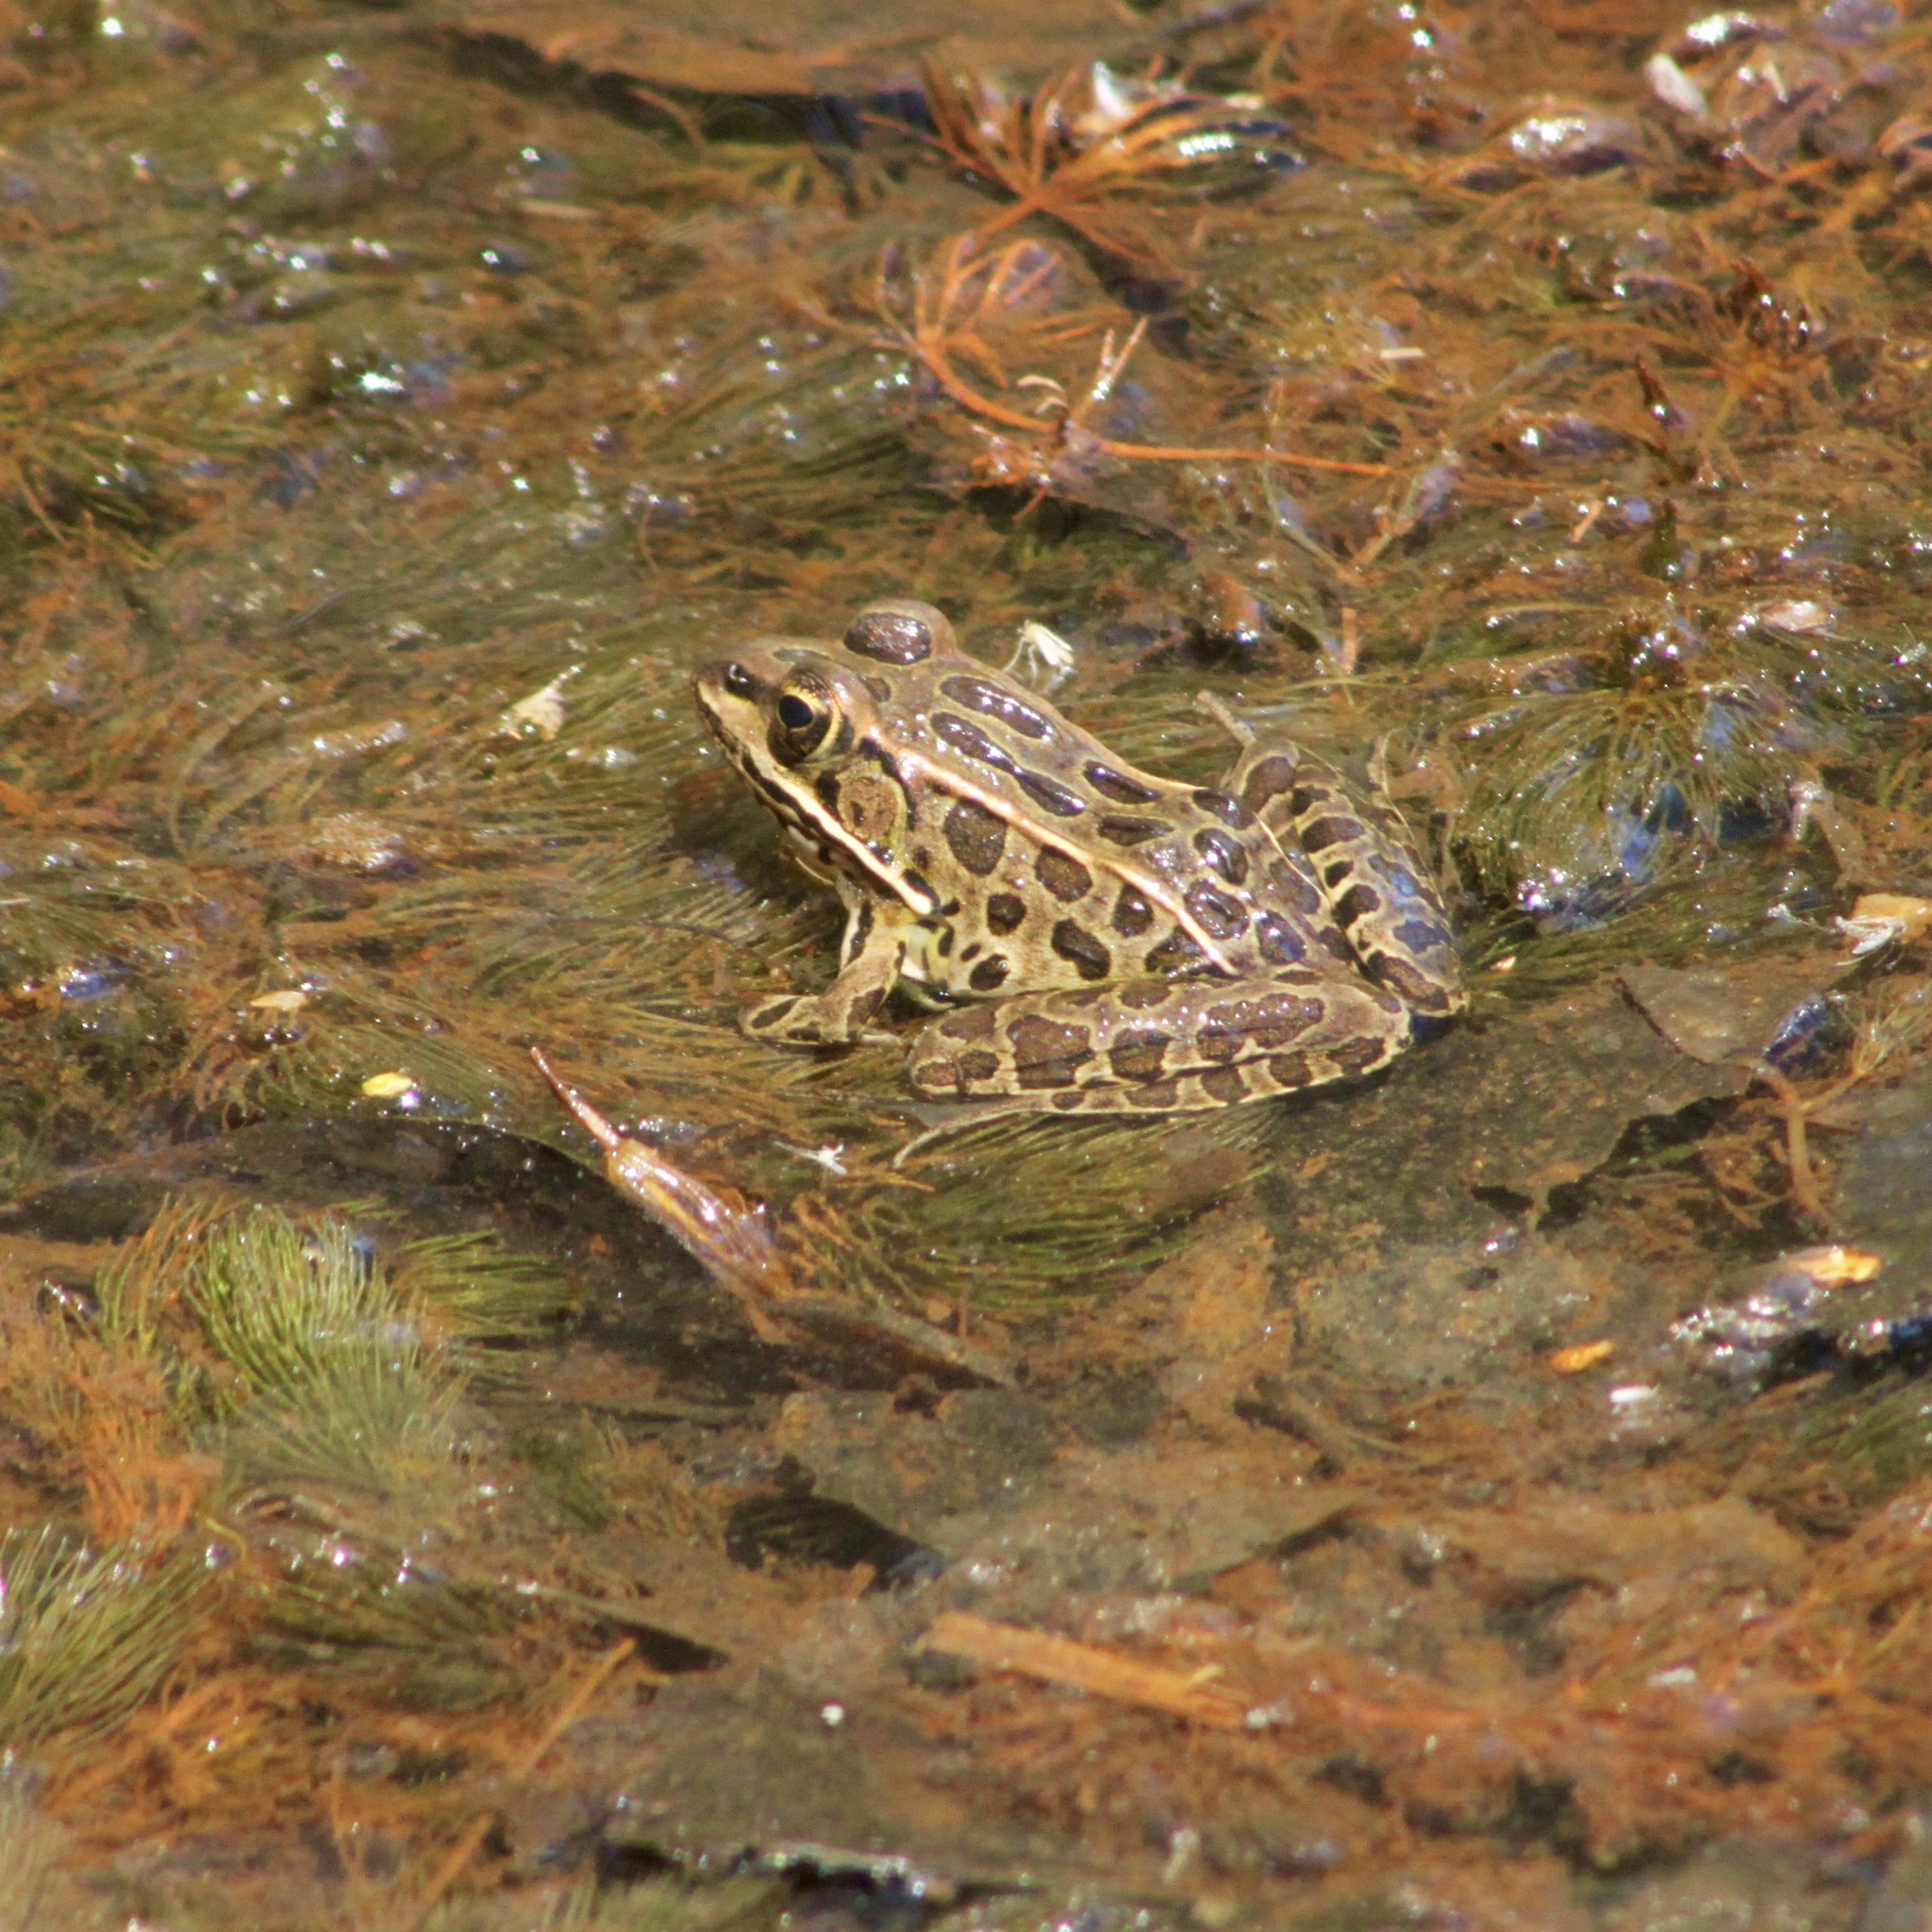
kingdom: Animalia
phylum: Chordata
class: Amphibia
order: Anura
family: Ranidae
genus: Lithobates
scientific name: Lithobates pipiens
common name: Northern leopard frog
